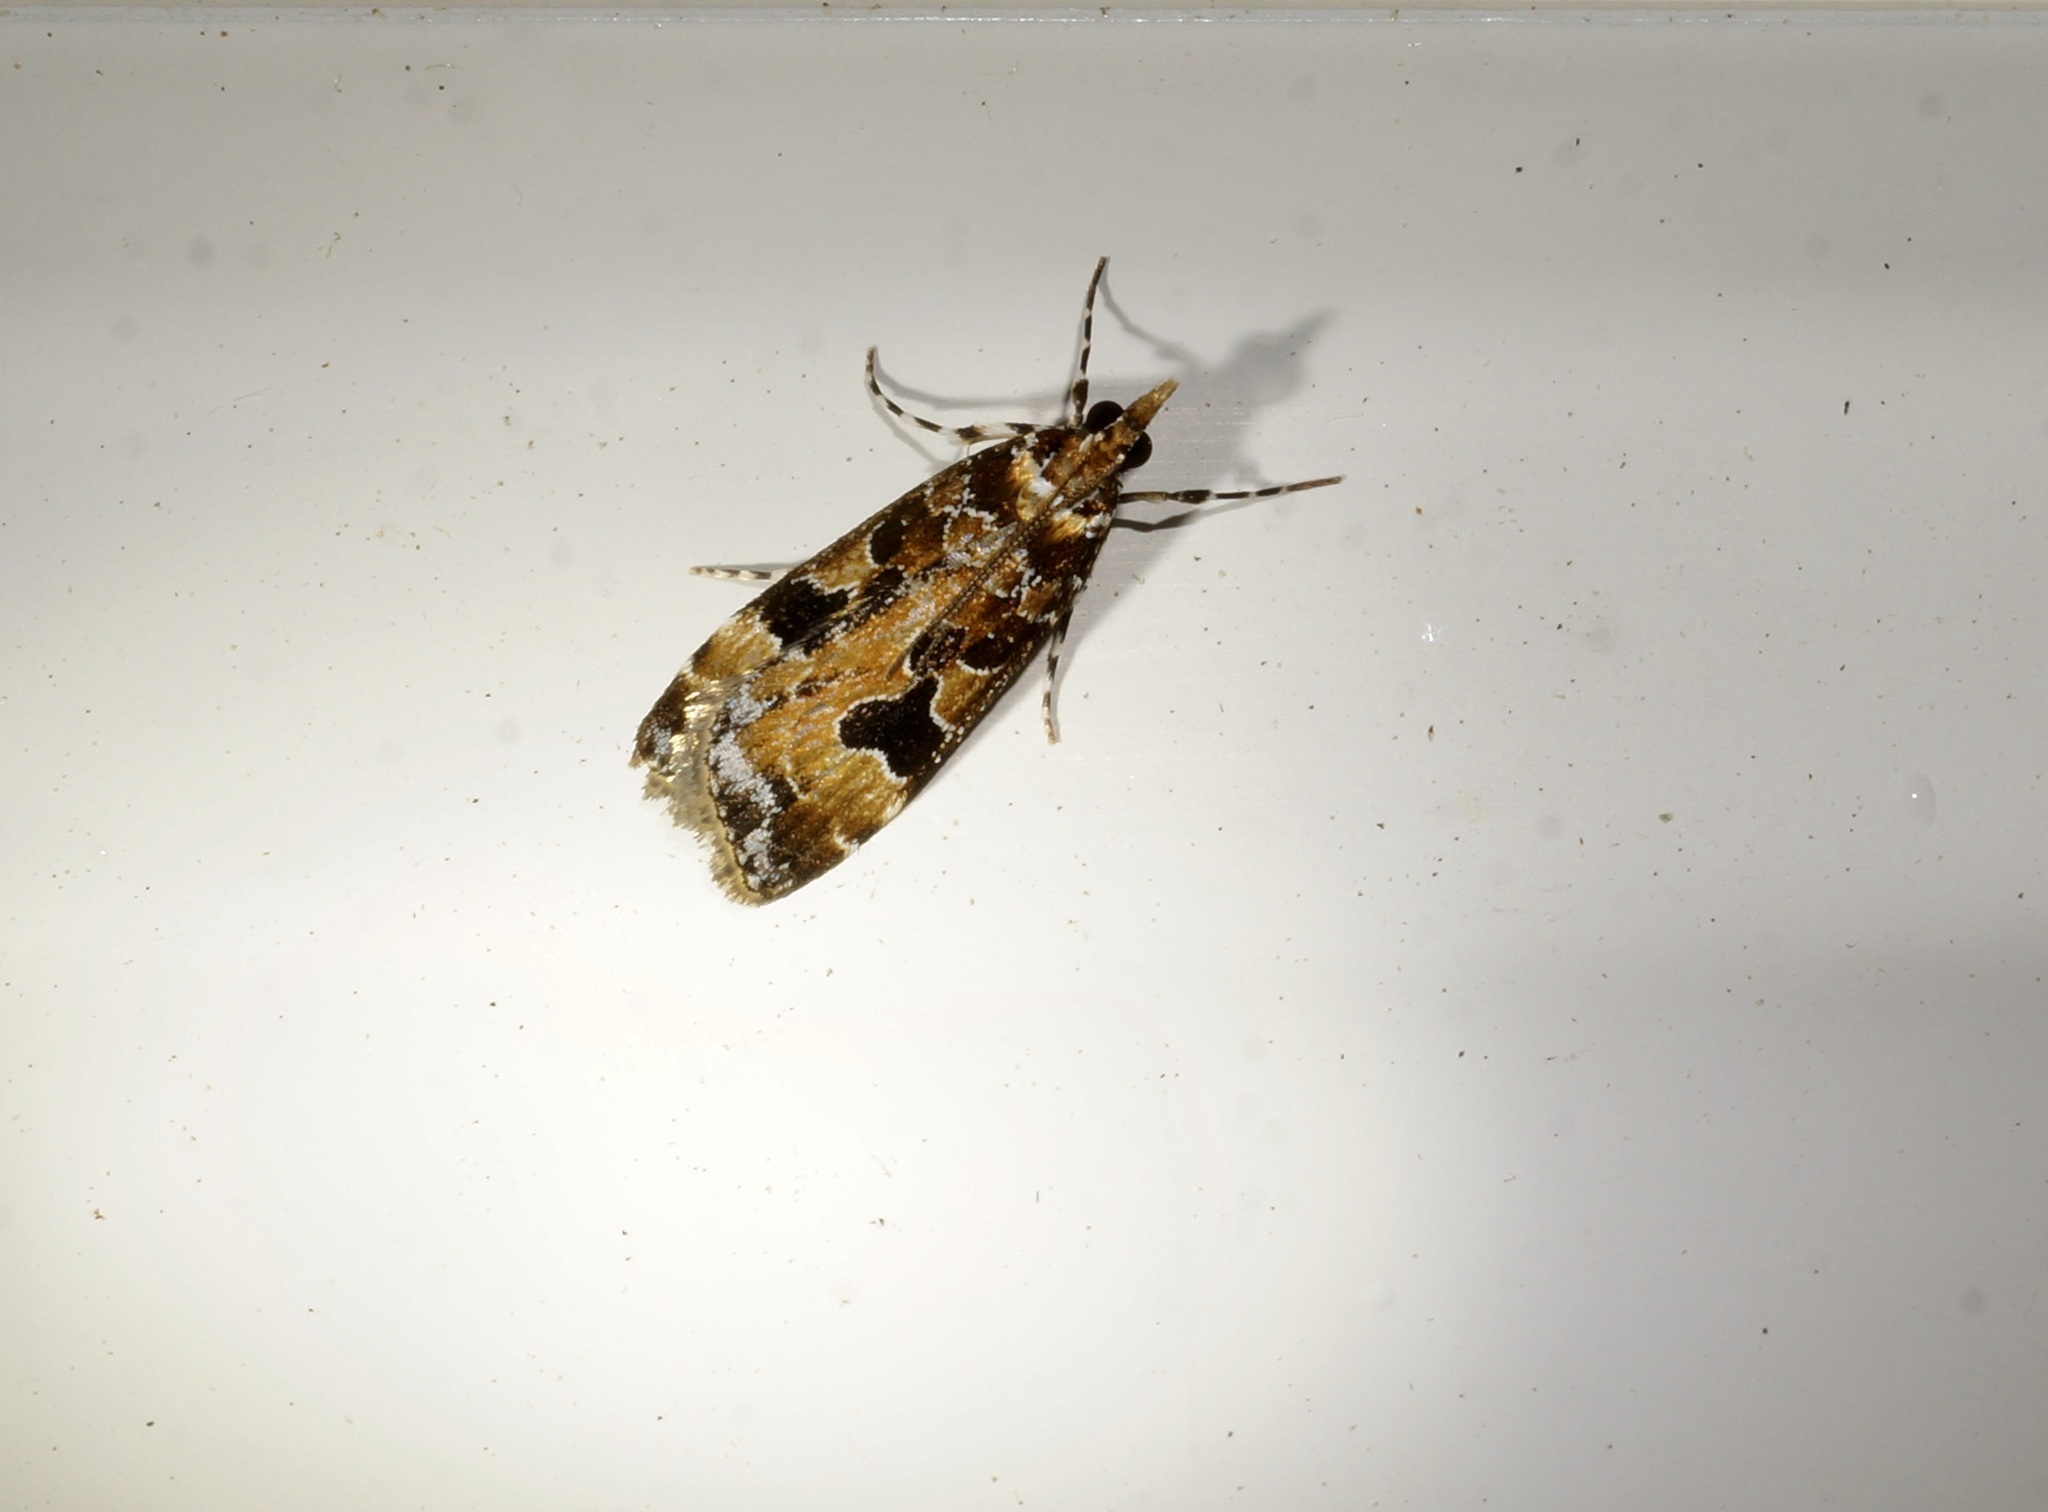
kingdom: Animalia
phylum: Arthropoda
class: Insecta
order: Lepidoptera
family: Crambidae
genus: Scoparia
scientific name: Scoparia ustimacula
